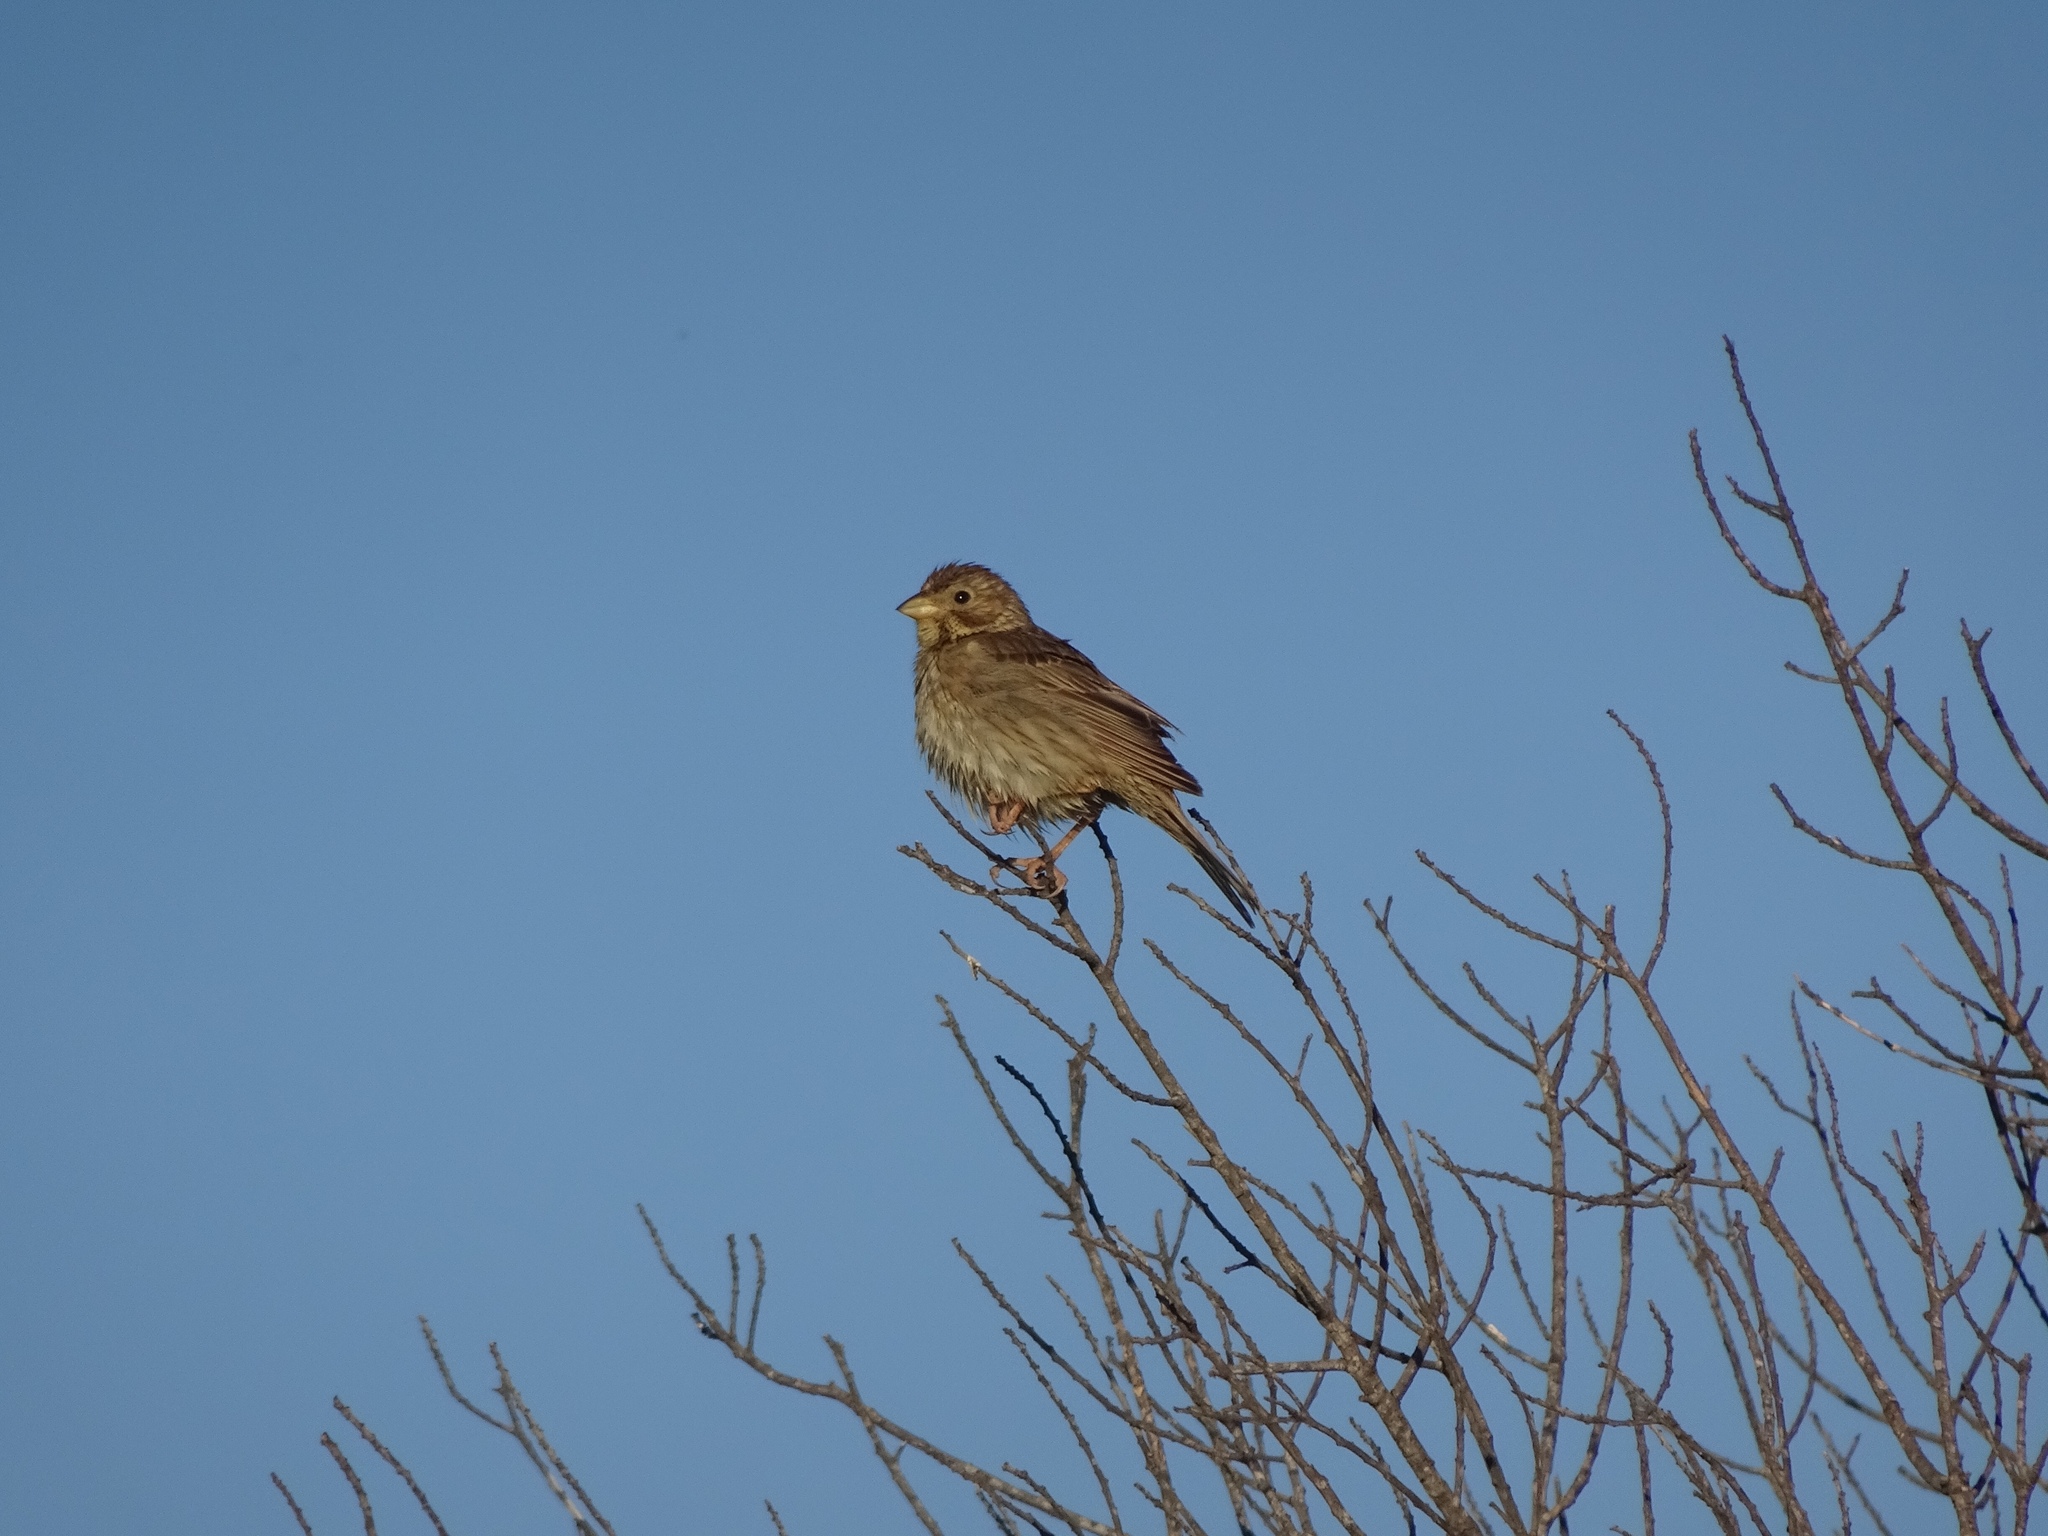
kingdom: Animalia
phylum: Chordata
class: Aves
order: Passeriformes
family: Emberizidae
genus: Emberiza
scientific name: Emberiza calandra
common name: Corn bunting
